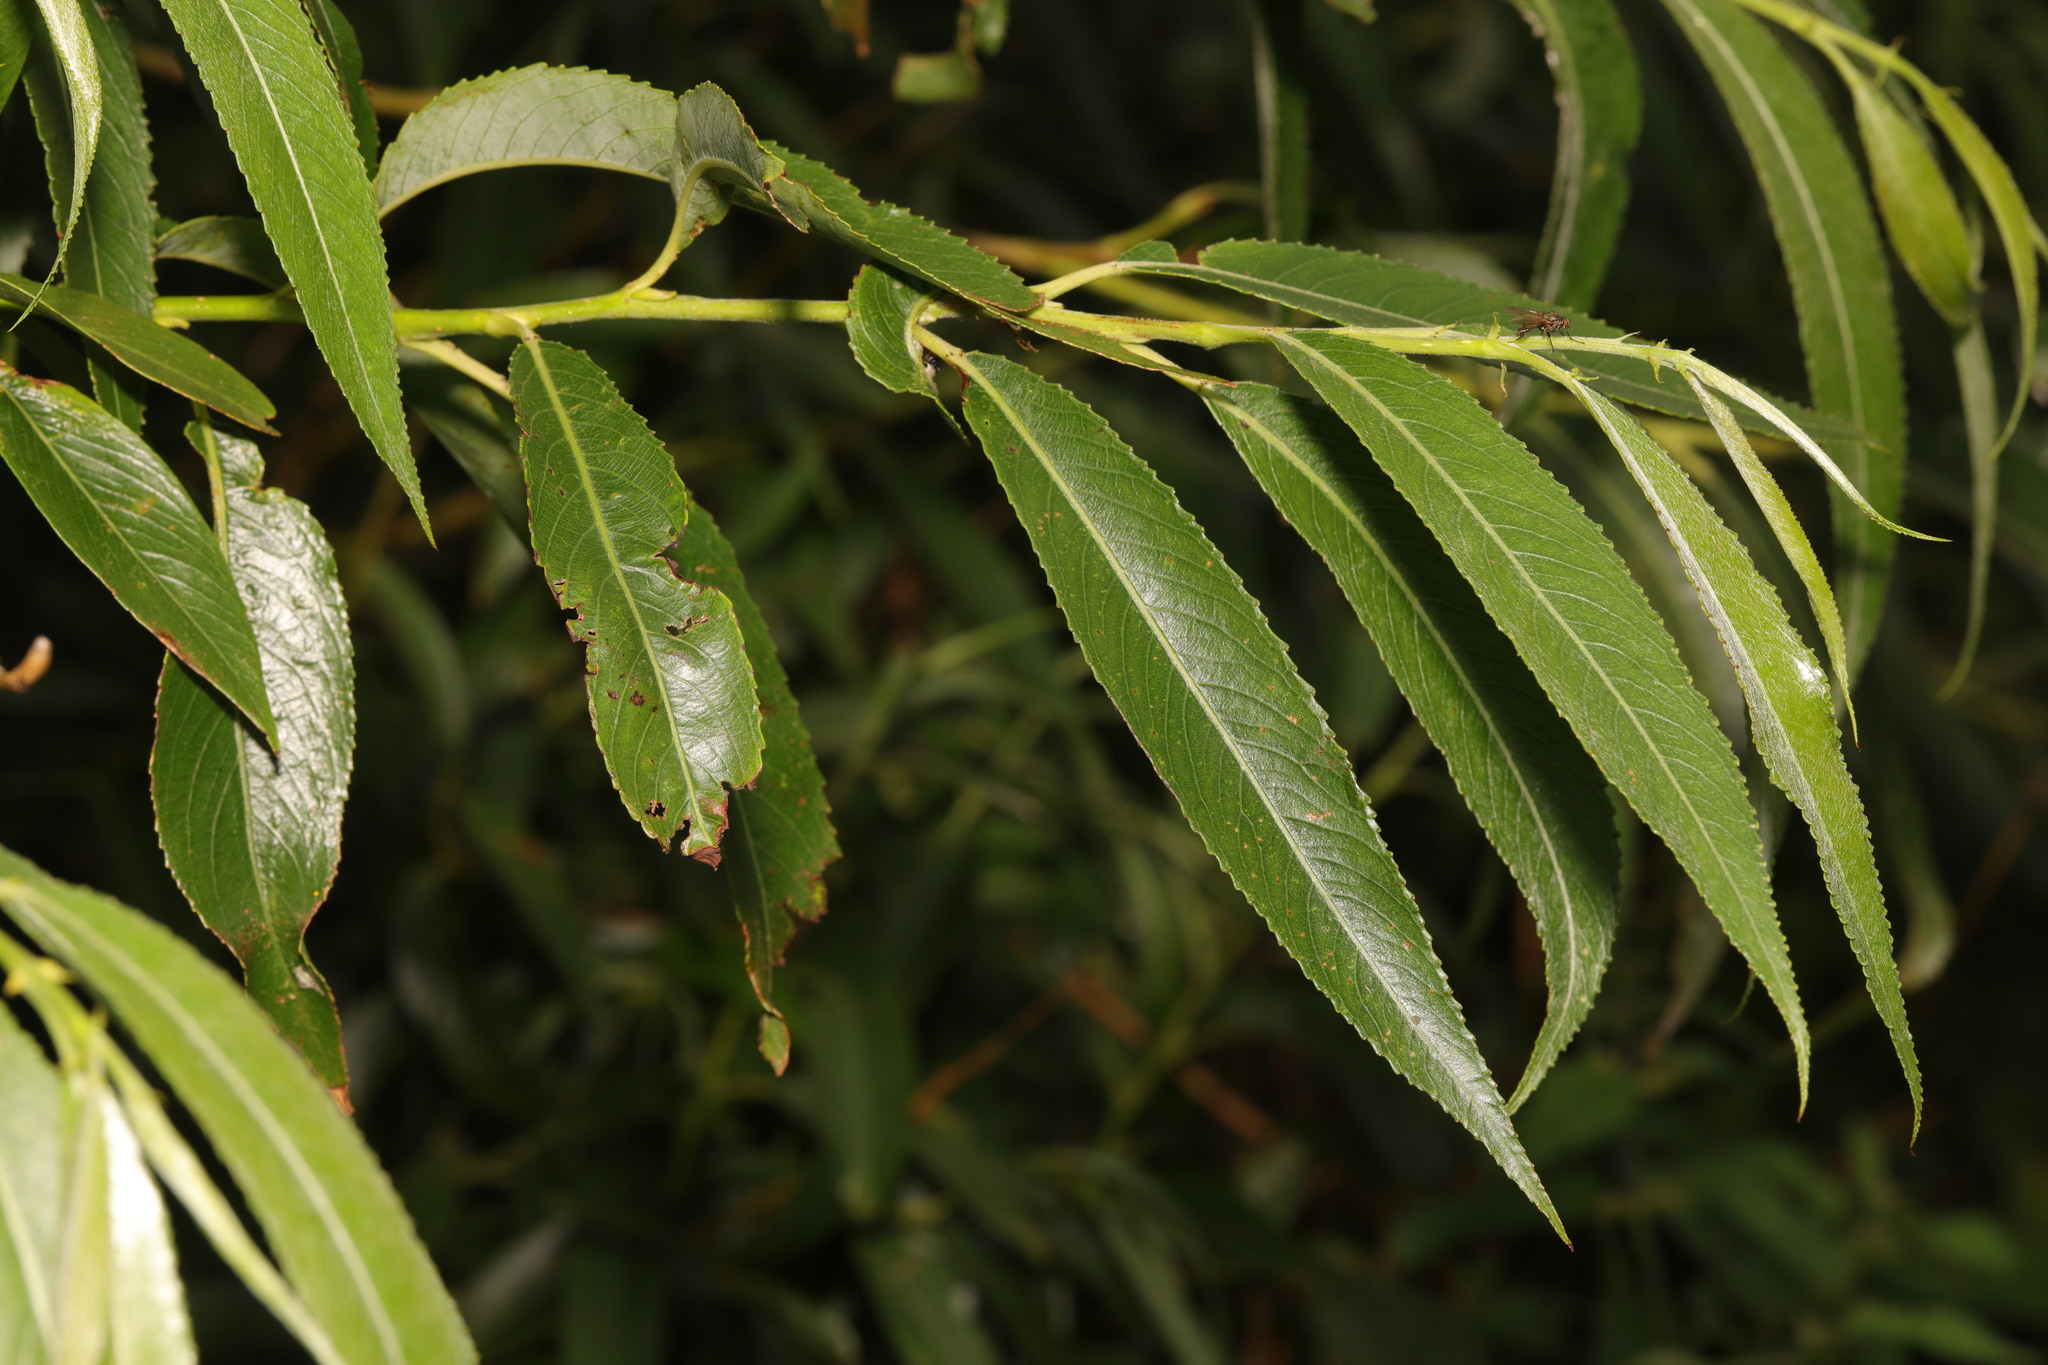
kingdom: Plantae
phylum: Tracheophyta
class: Magnoliopsida
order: Malpighiales
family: Salicaceae
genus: Salix
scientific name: Salix fragilis
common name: Crack willow
